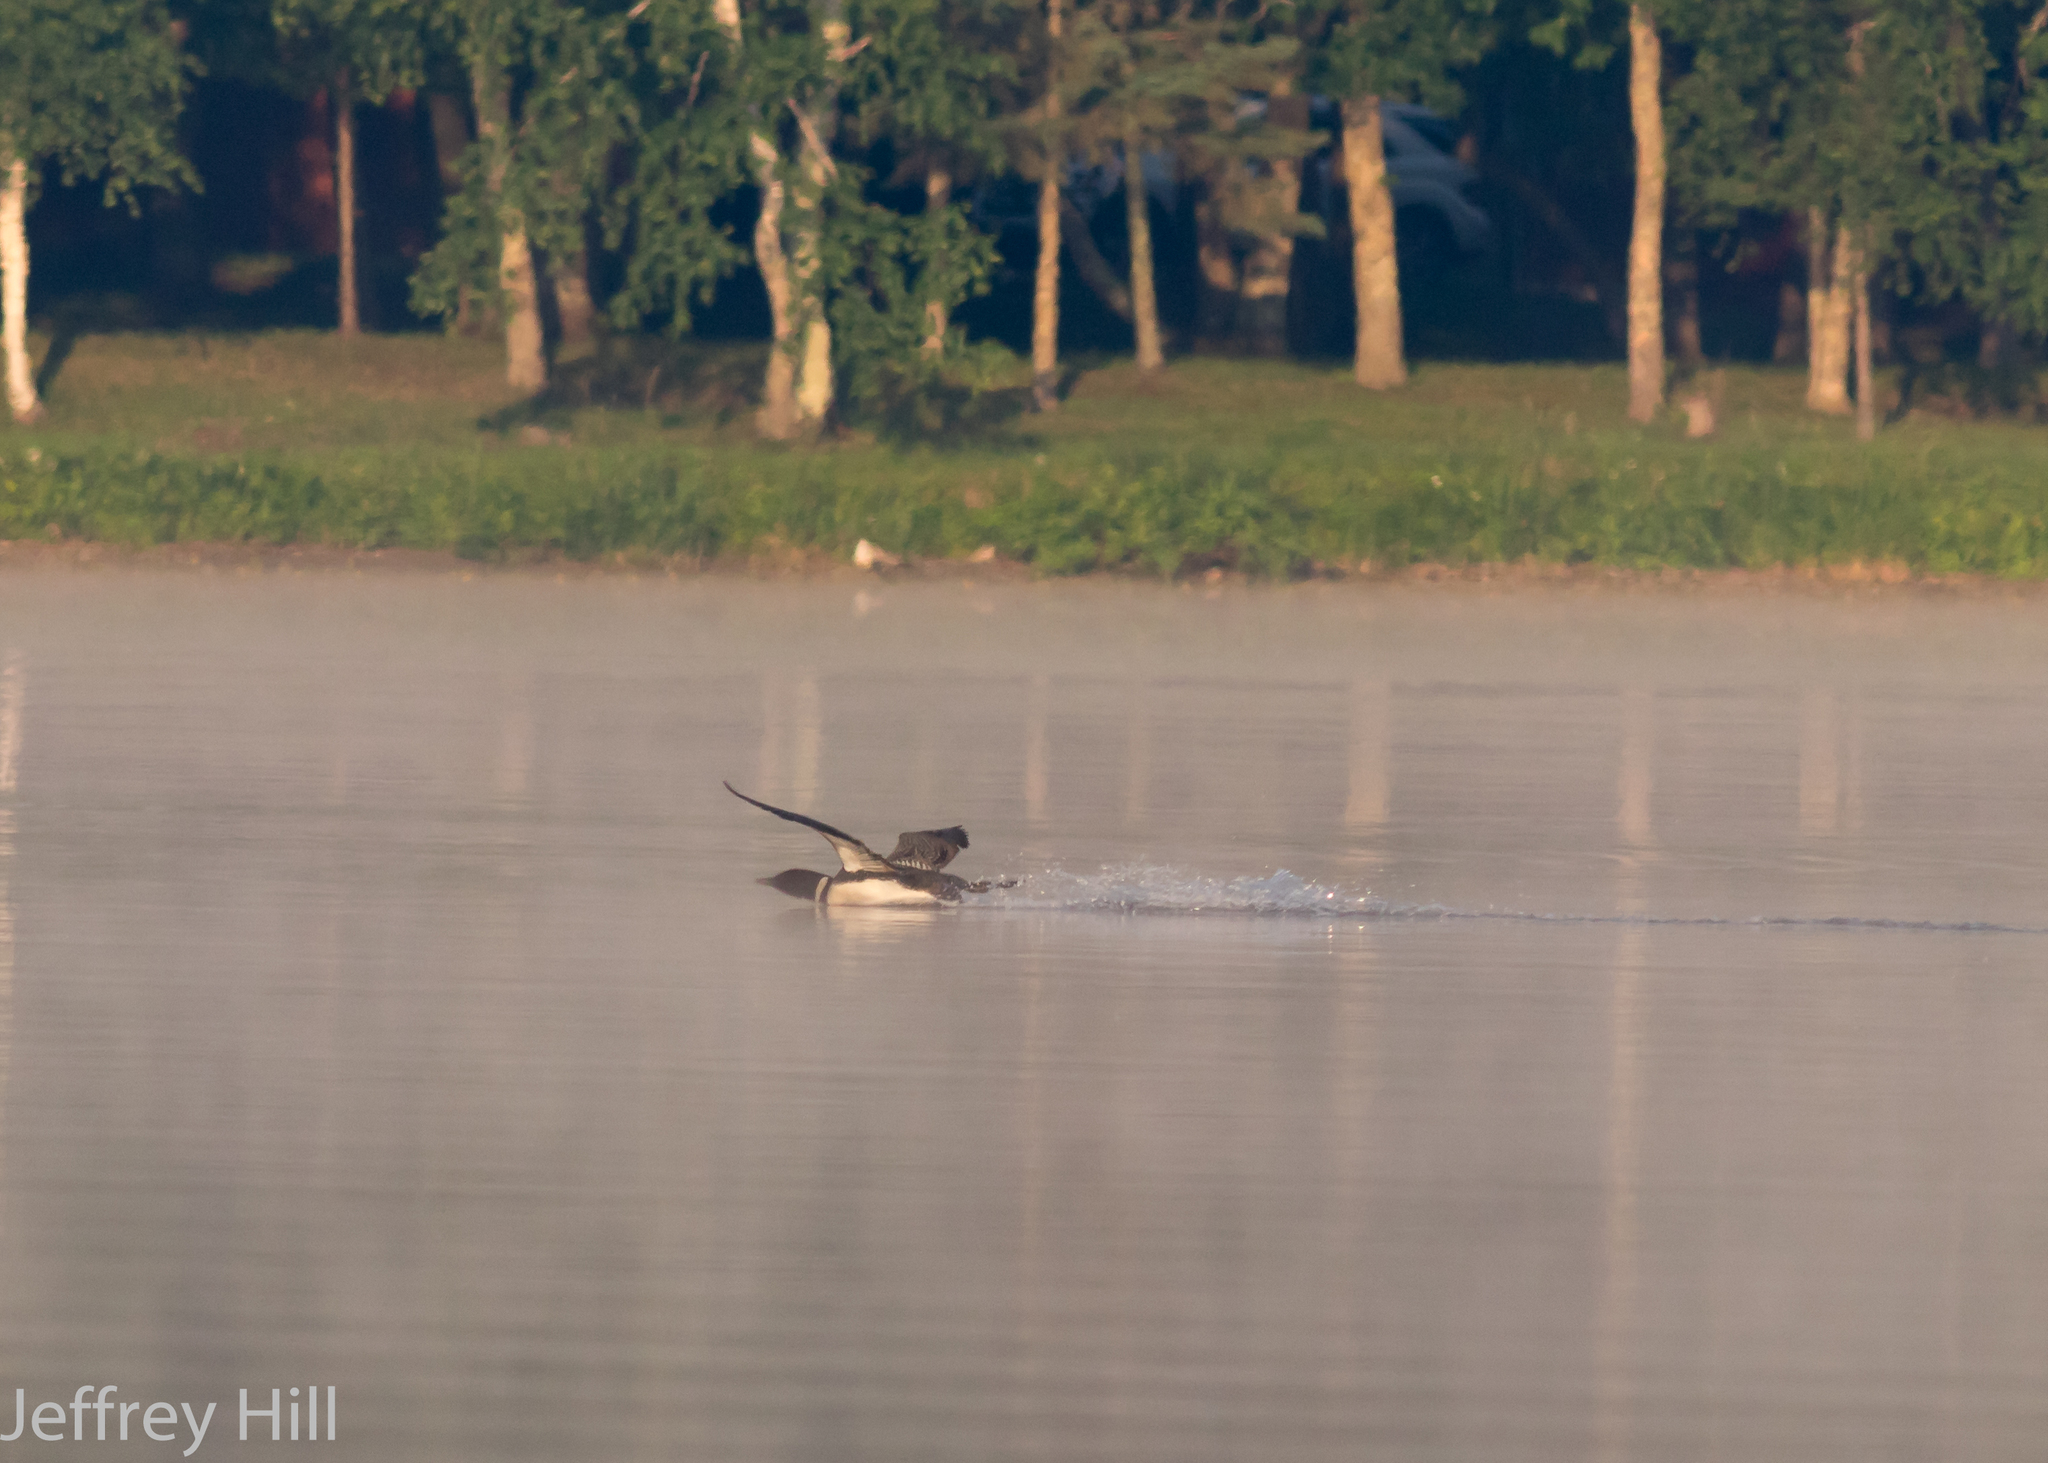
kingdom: Animalia
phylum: Chordata
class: Aves
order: Gaviiformes
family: Gaviidae
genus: Gavia
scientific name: Gavia immer
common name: Common loon
